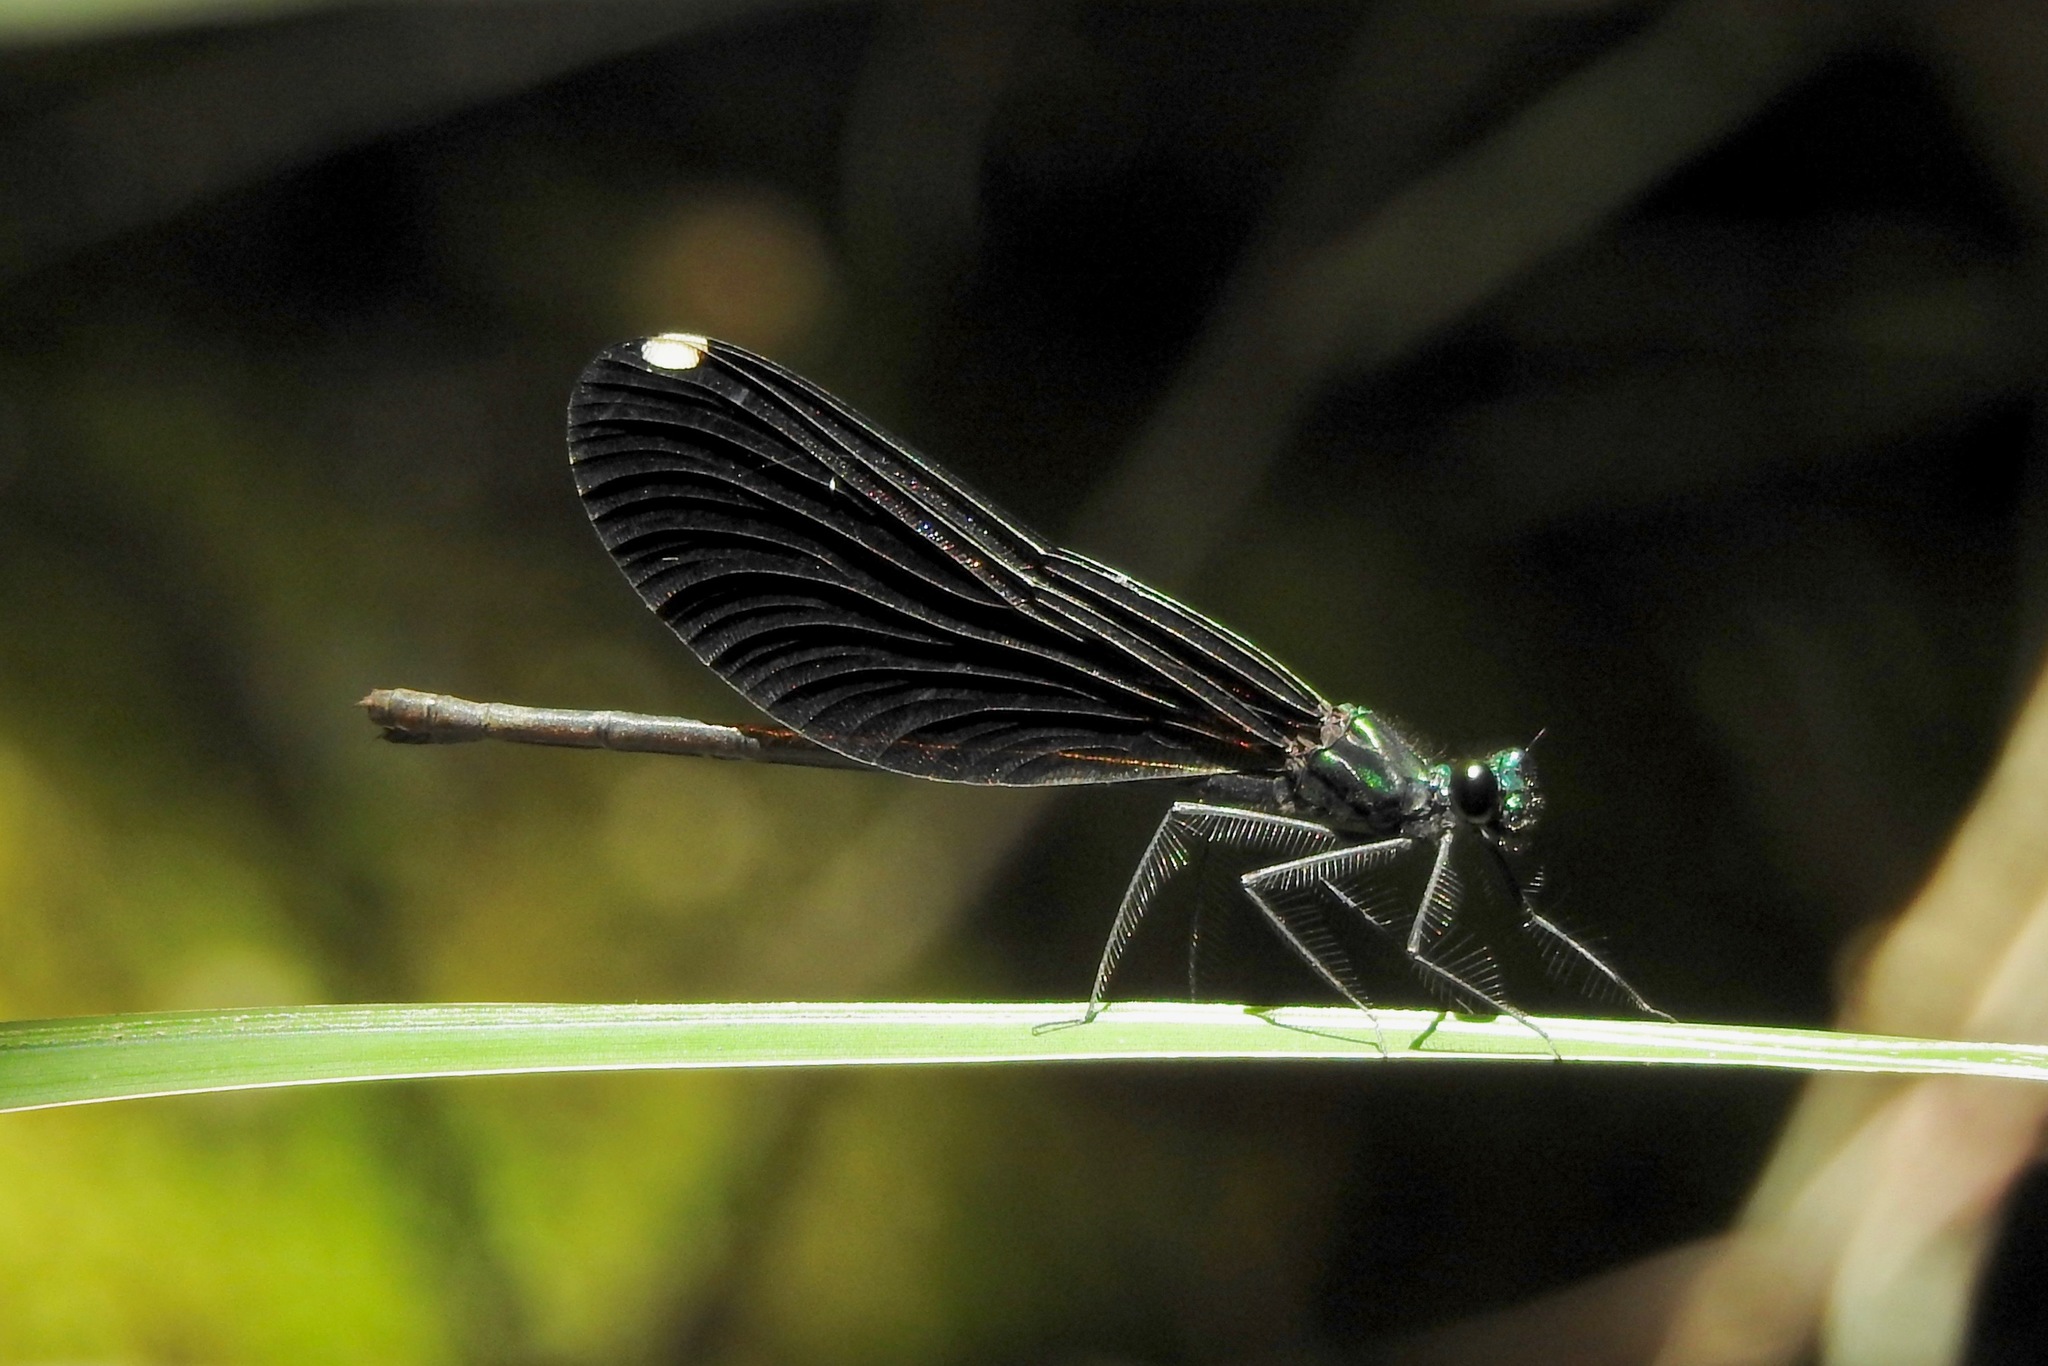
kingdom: Animalia
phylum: Arthropoda
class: Insecta
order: Odonata
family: Calopterygidae
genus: Calopteryx
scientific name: Calopteryx maculata
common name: Ebony jewelwing
